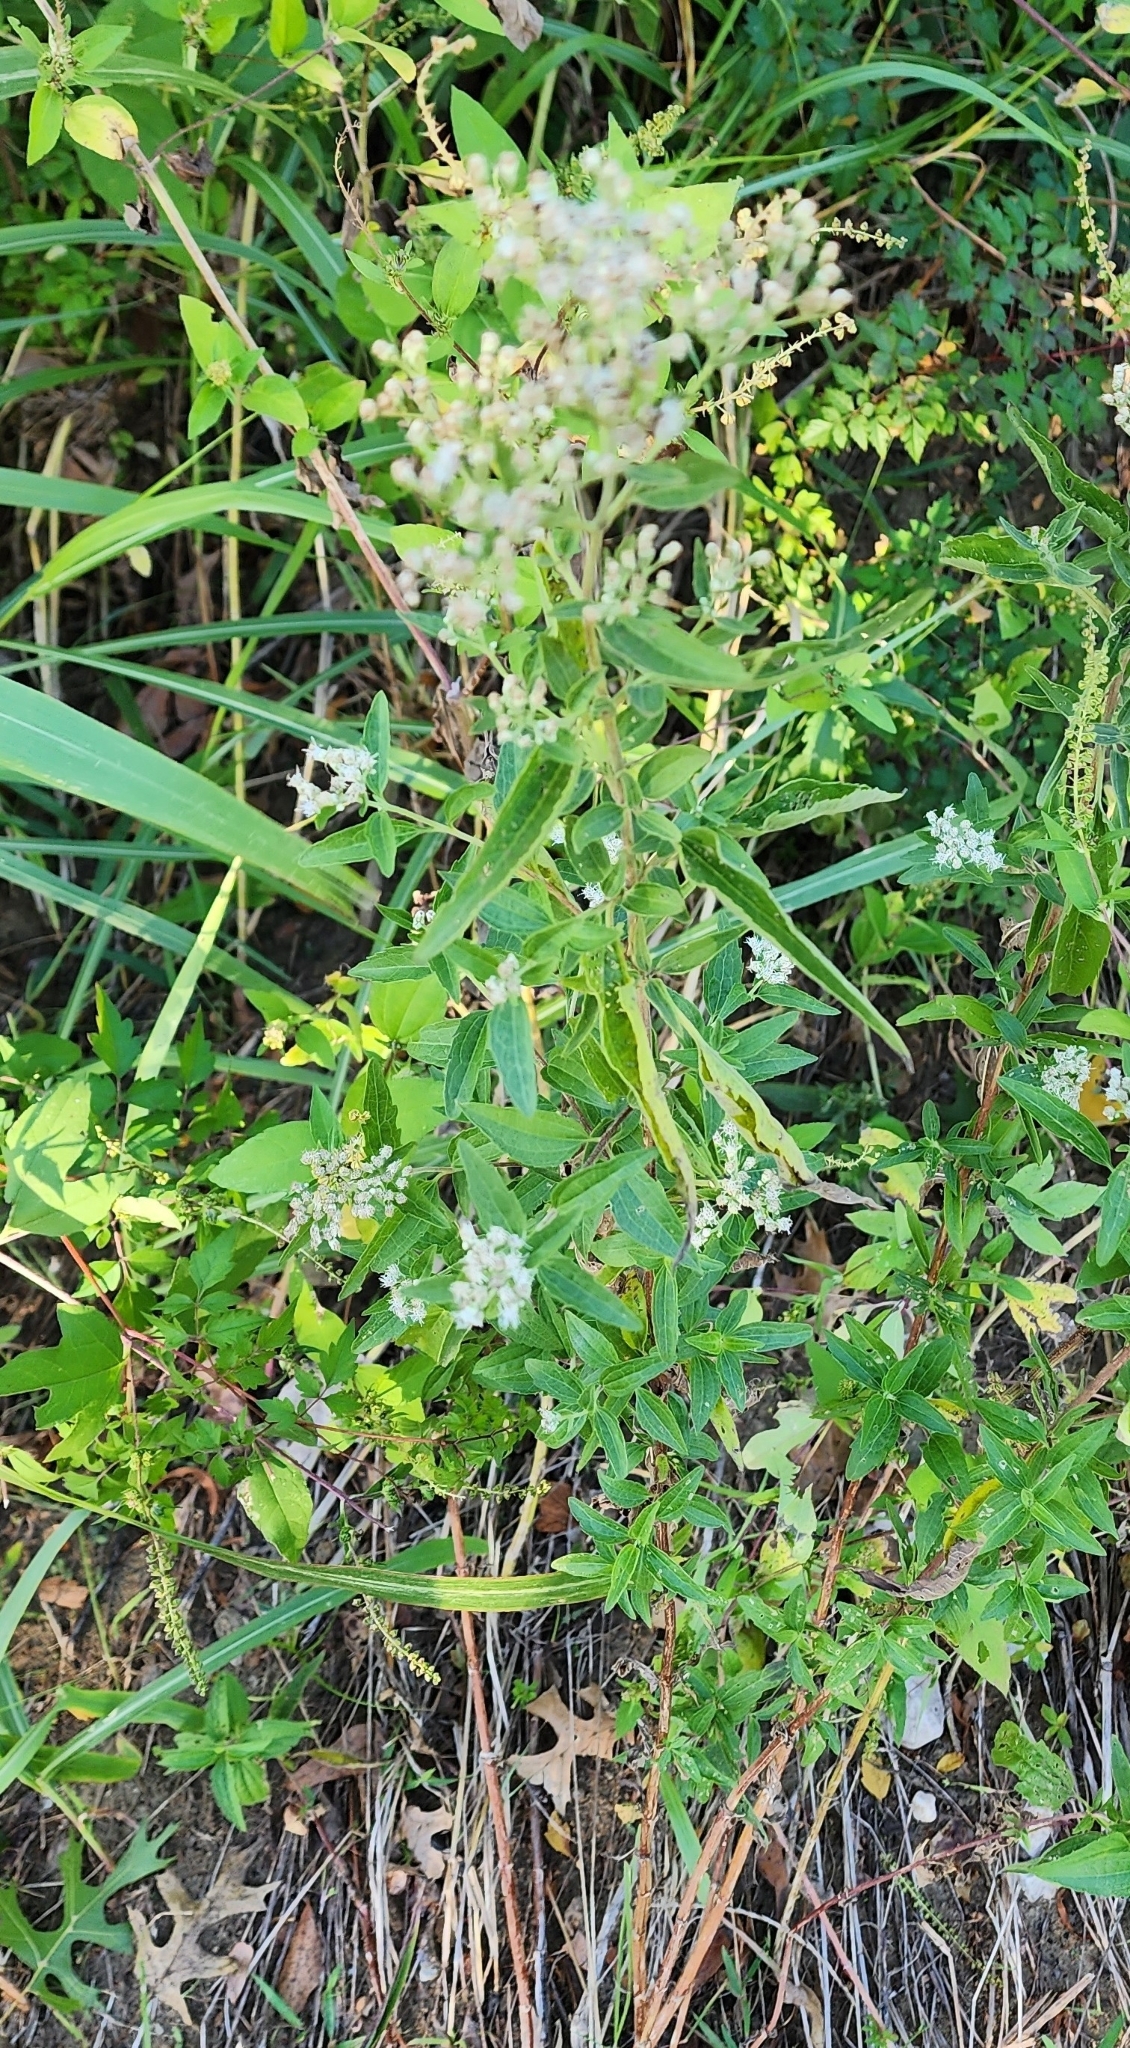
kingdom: Plantae
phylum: Tracheophyta
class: Magnoliopsida
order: Asterales
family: Asteraceae
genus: Eupatorium
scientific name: Eupatorium serotinum
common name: Late boneset
